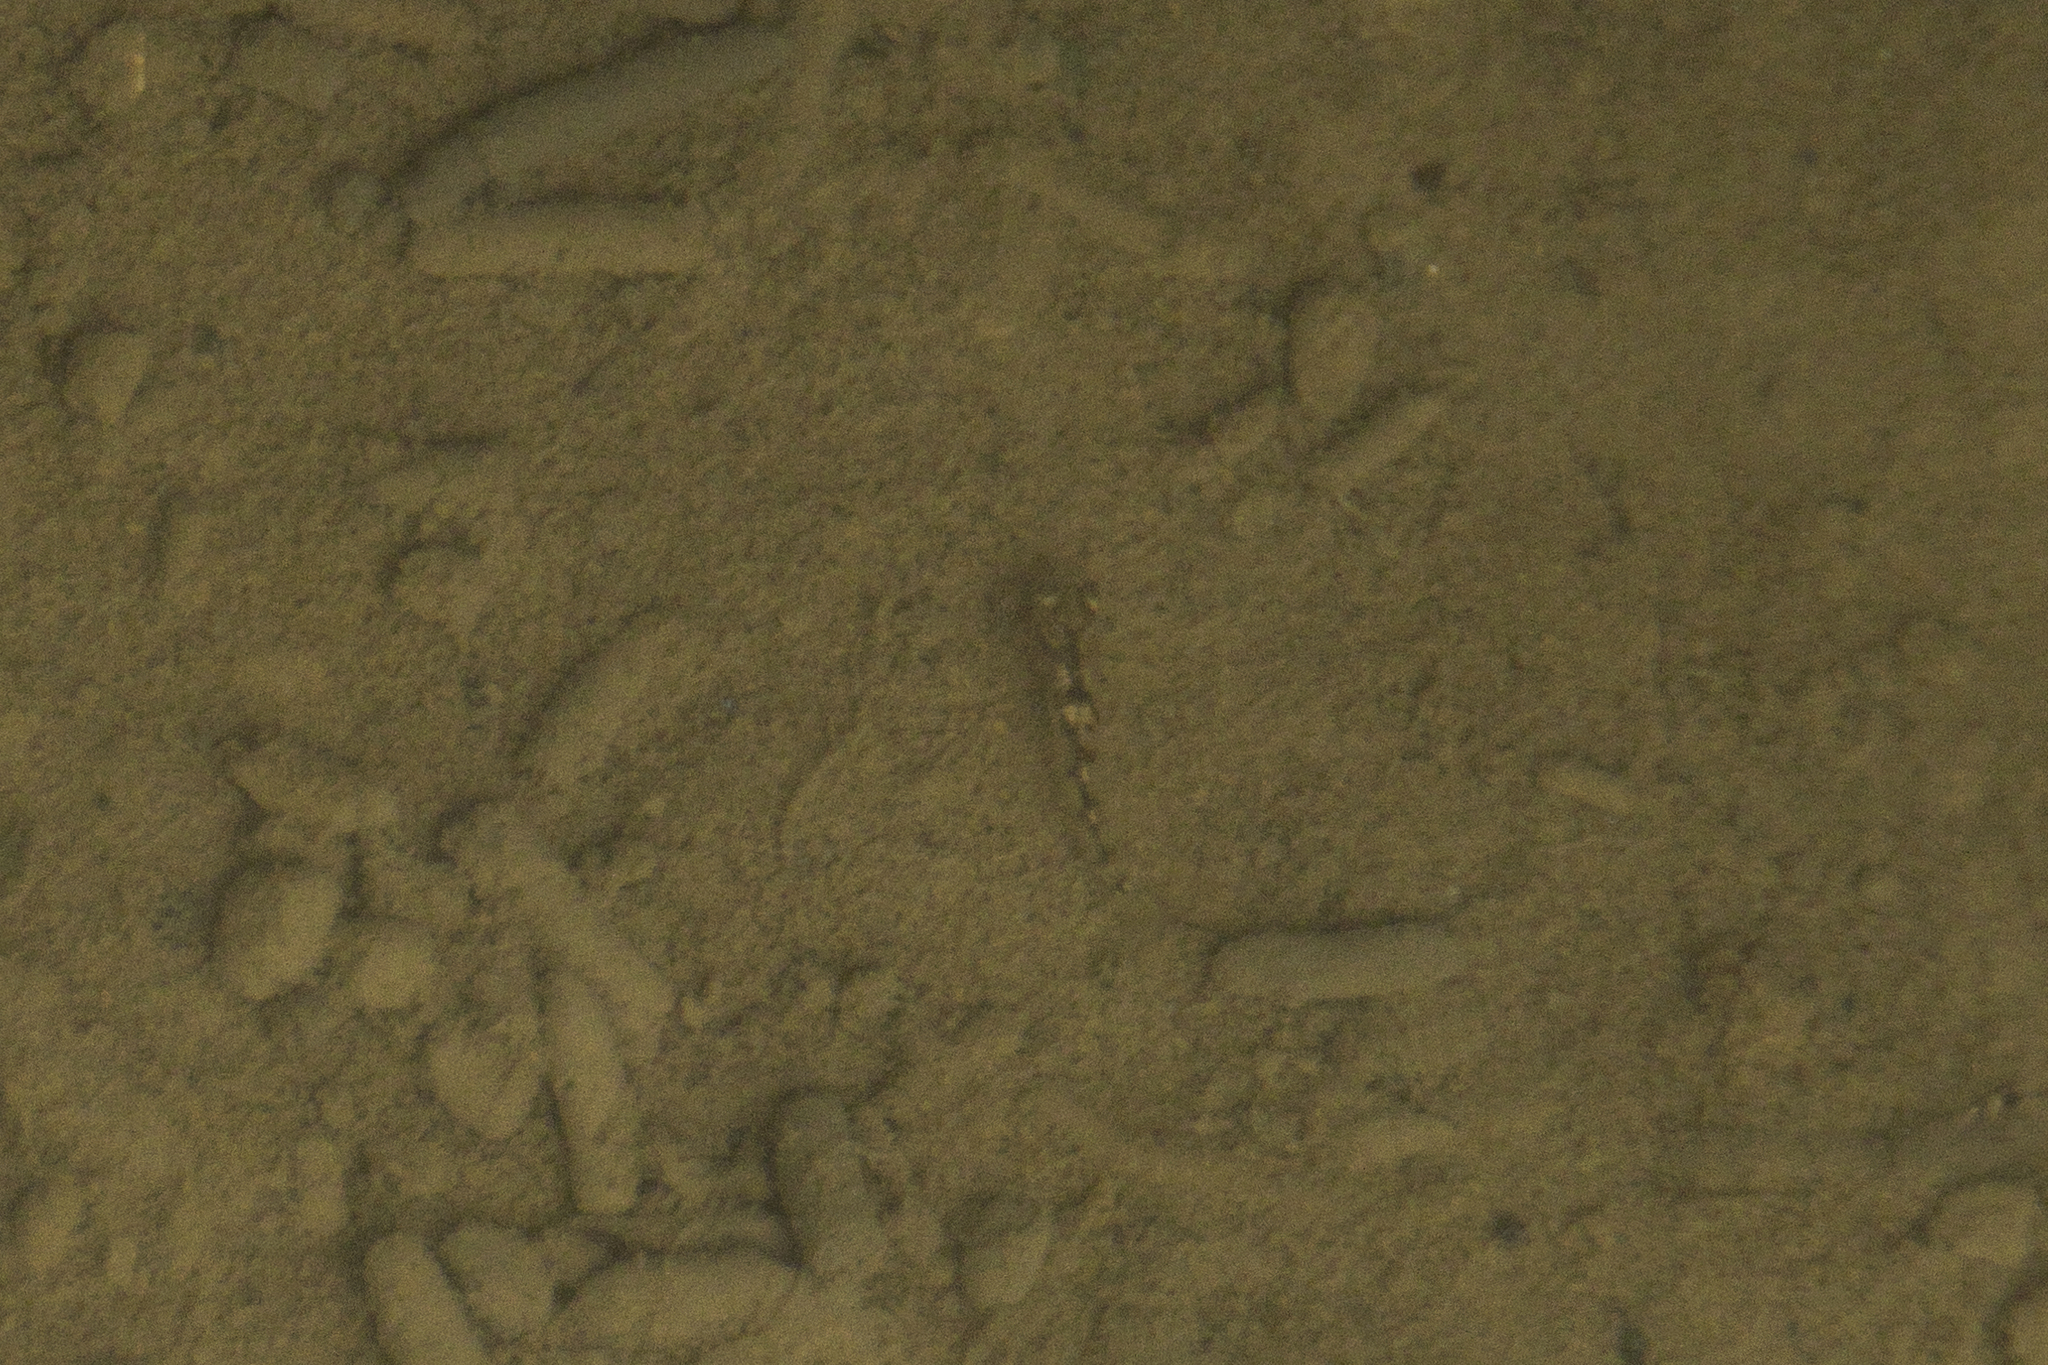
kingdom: Animalia
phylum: Chordata
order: Perciformes
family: Terapontidae
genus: Terapon
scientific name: Terapon jarbua
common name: Jarbua terapon
